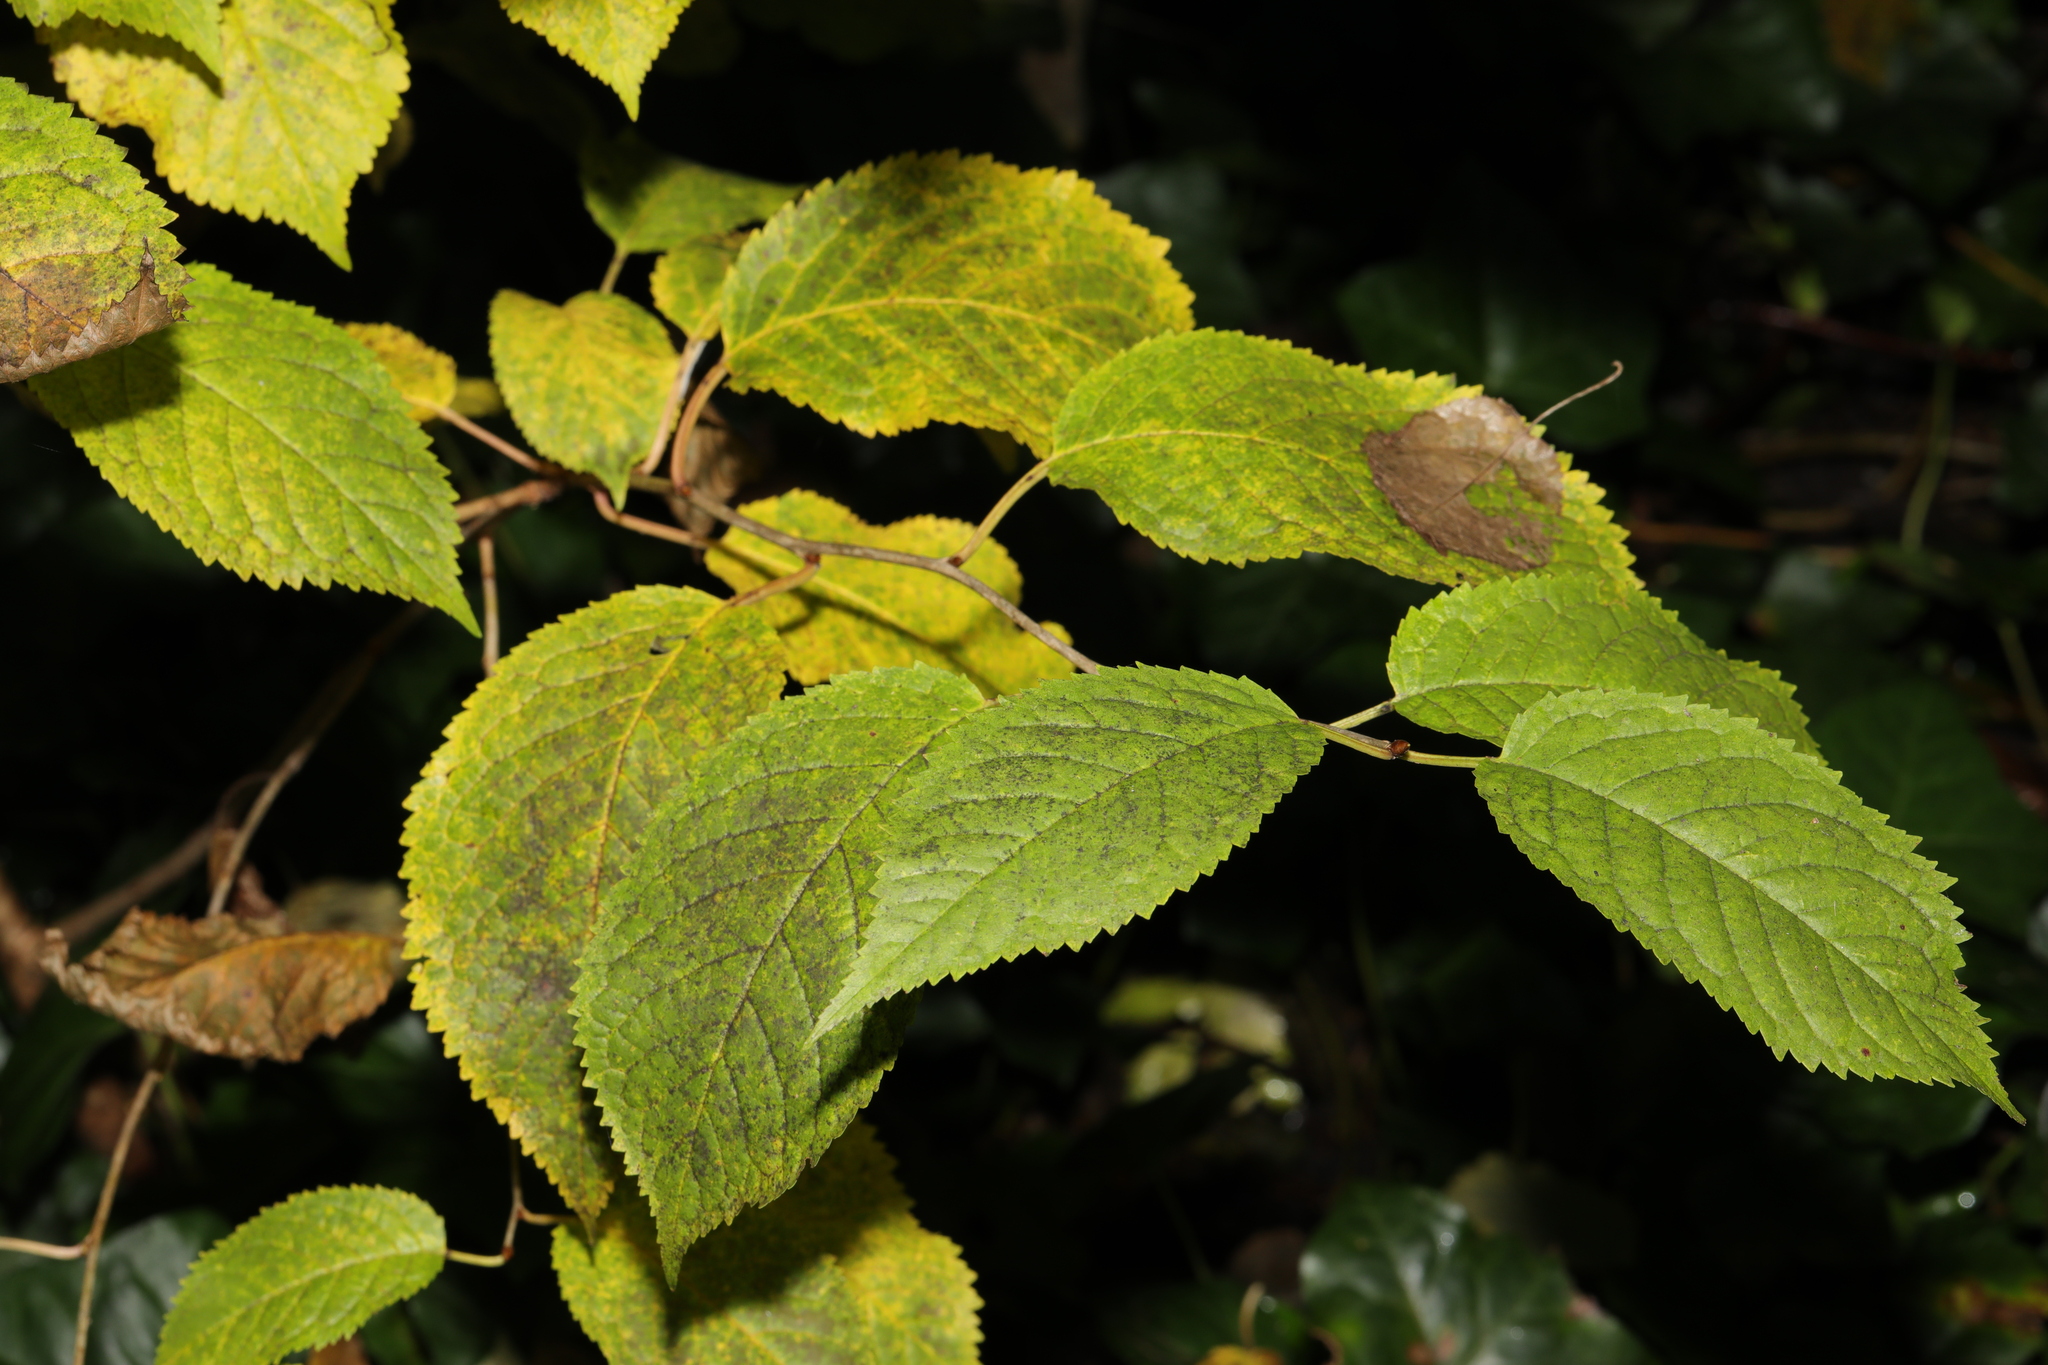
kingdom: Plantae
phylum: Tracheophyta
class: Magnoliopsida
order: Rosales
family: Rosaceae
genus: Prunus
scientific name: Prunus avium
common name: Sweet cherry
